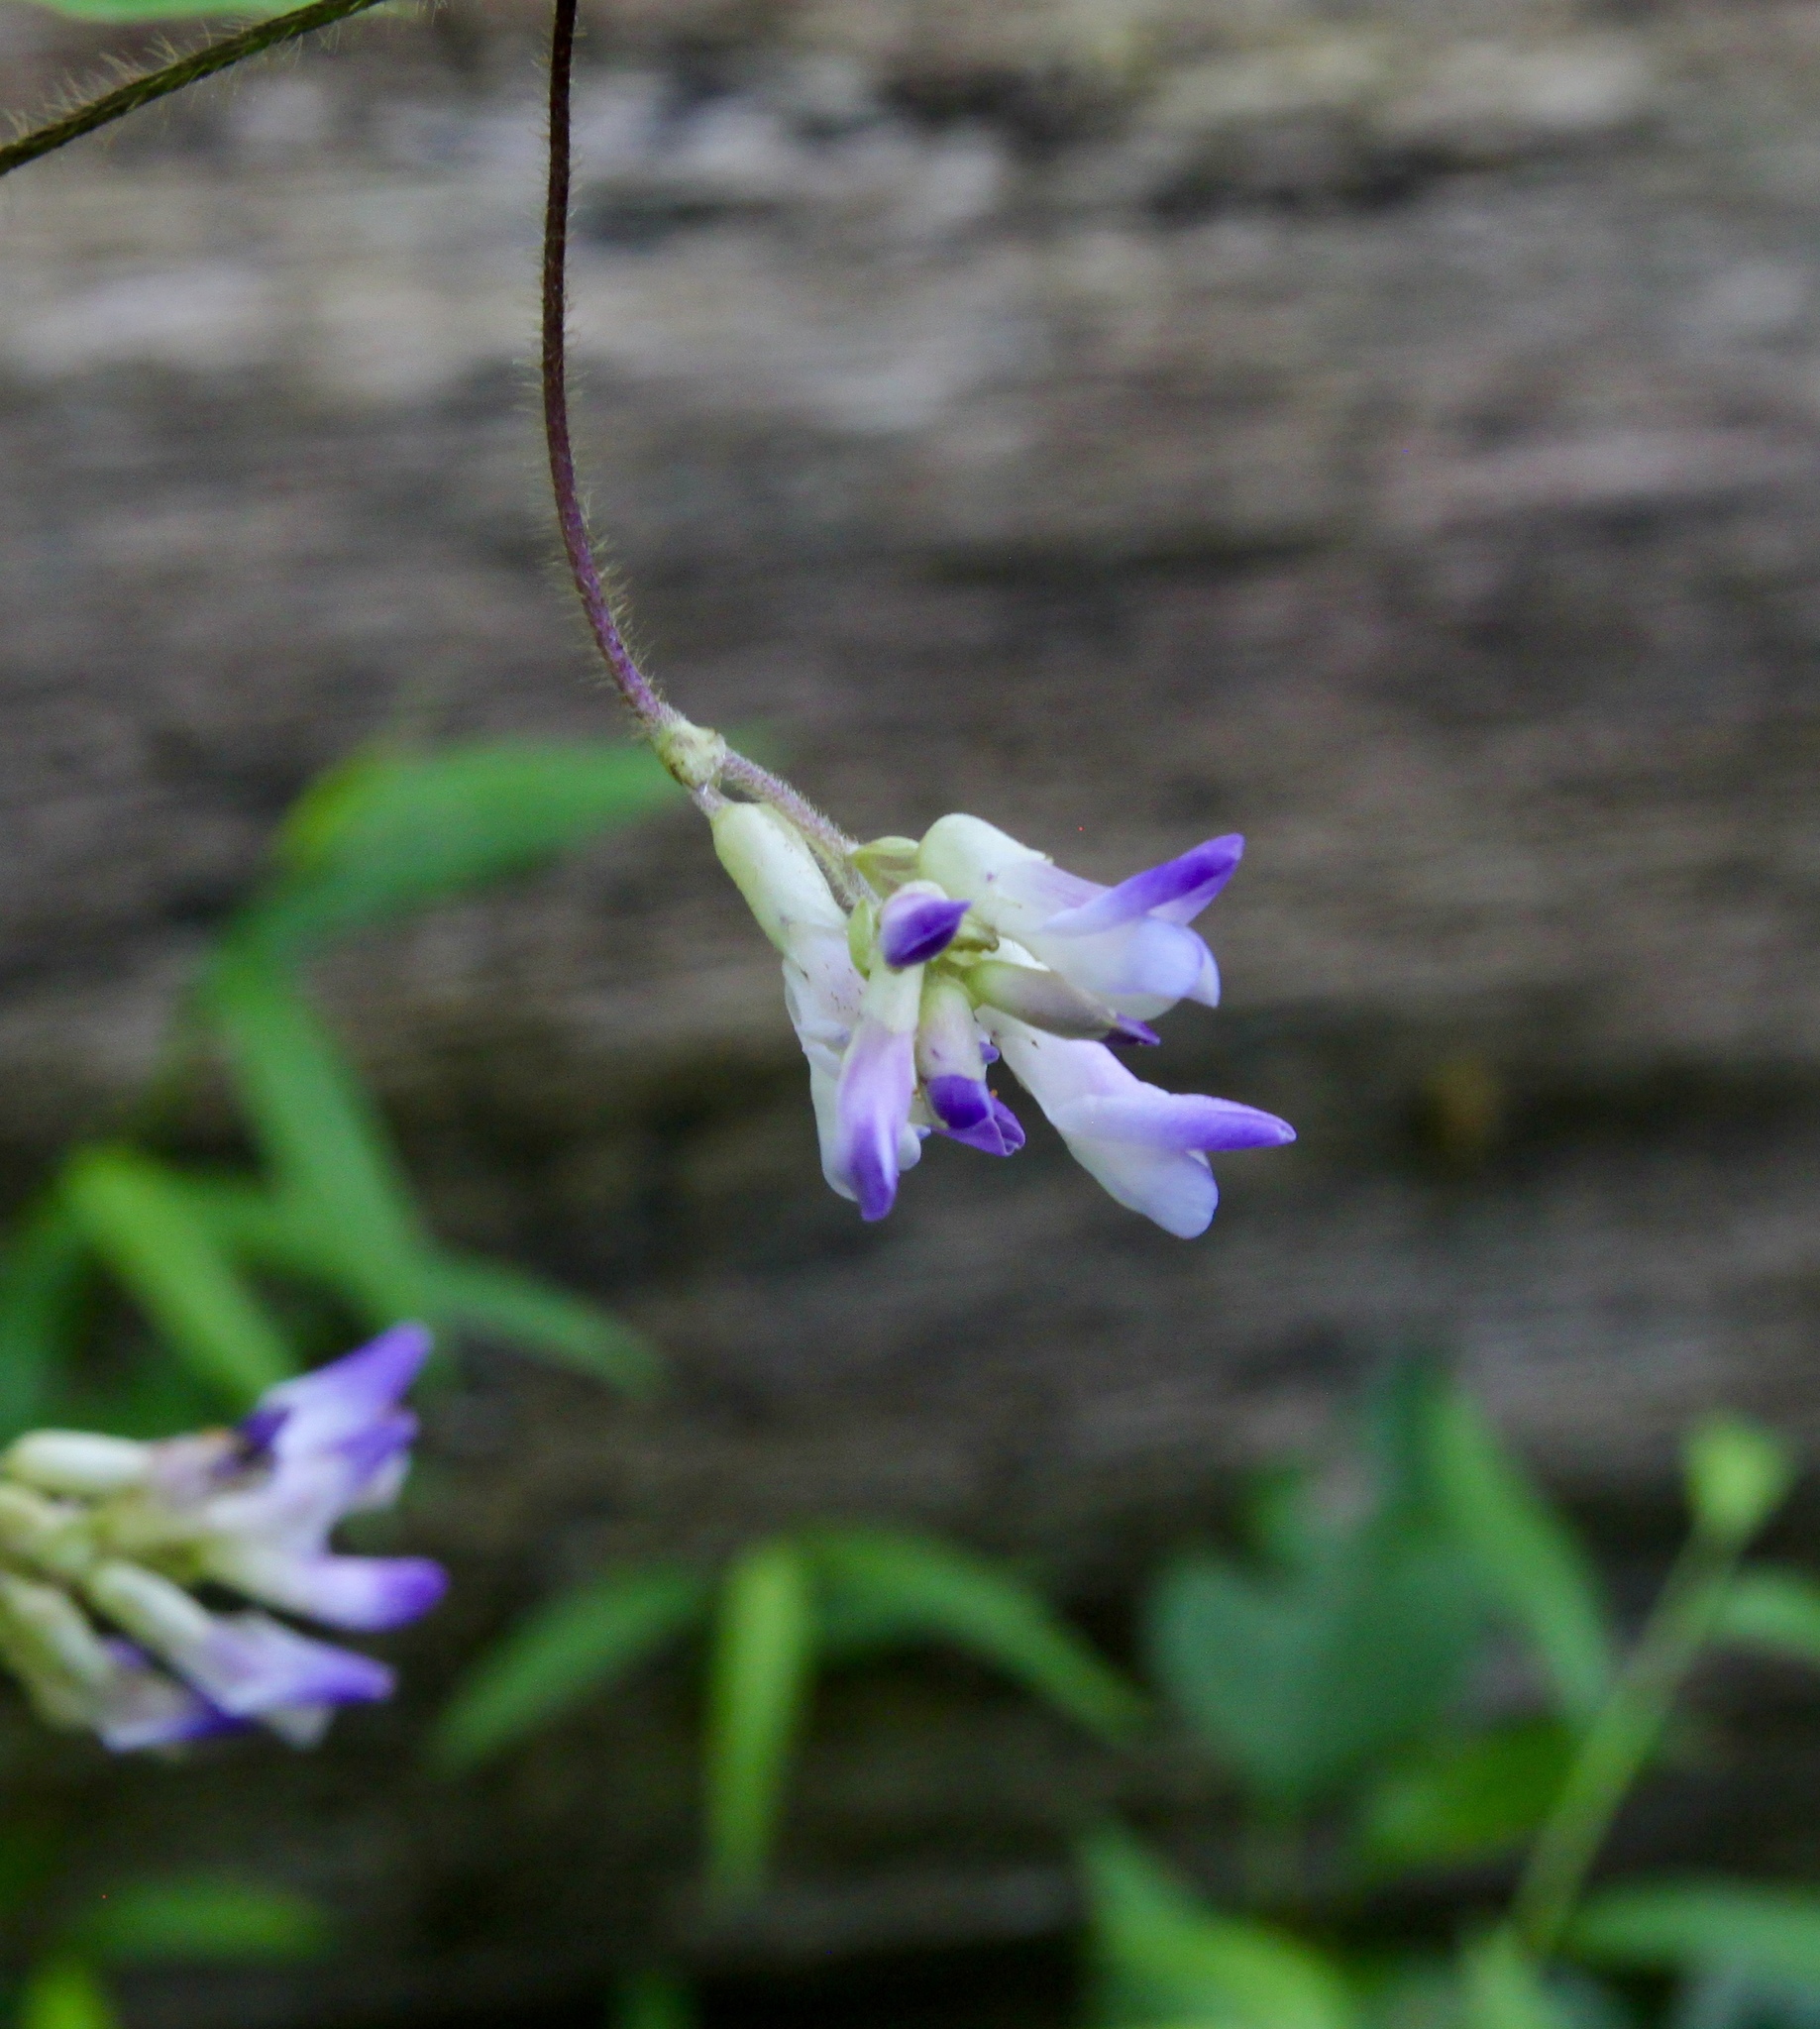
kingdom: Plantae
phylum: Tracheophyta
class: Magnoliopsida
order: Fabales
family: Fabaceae
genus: Amphicarpaea
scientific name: Amphicarpaea bracteata
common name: American hog peanut
